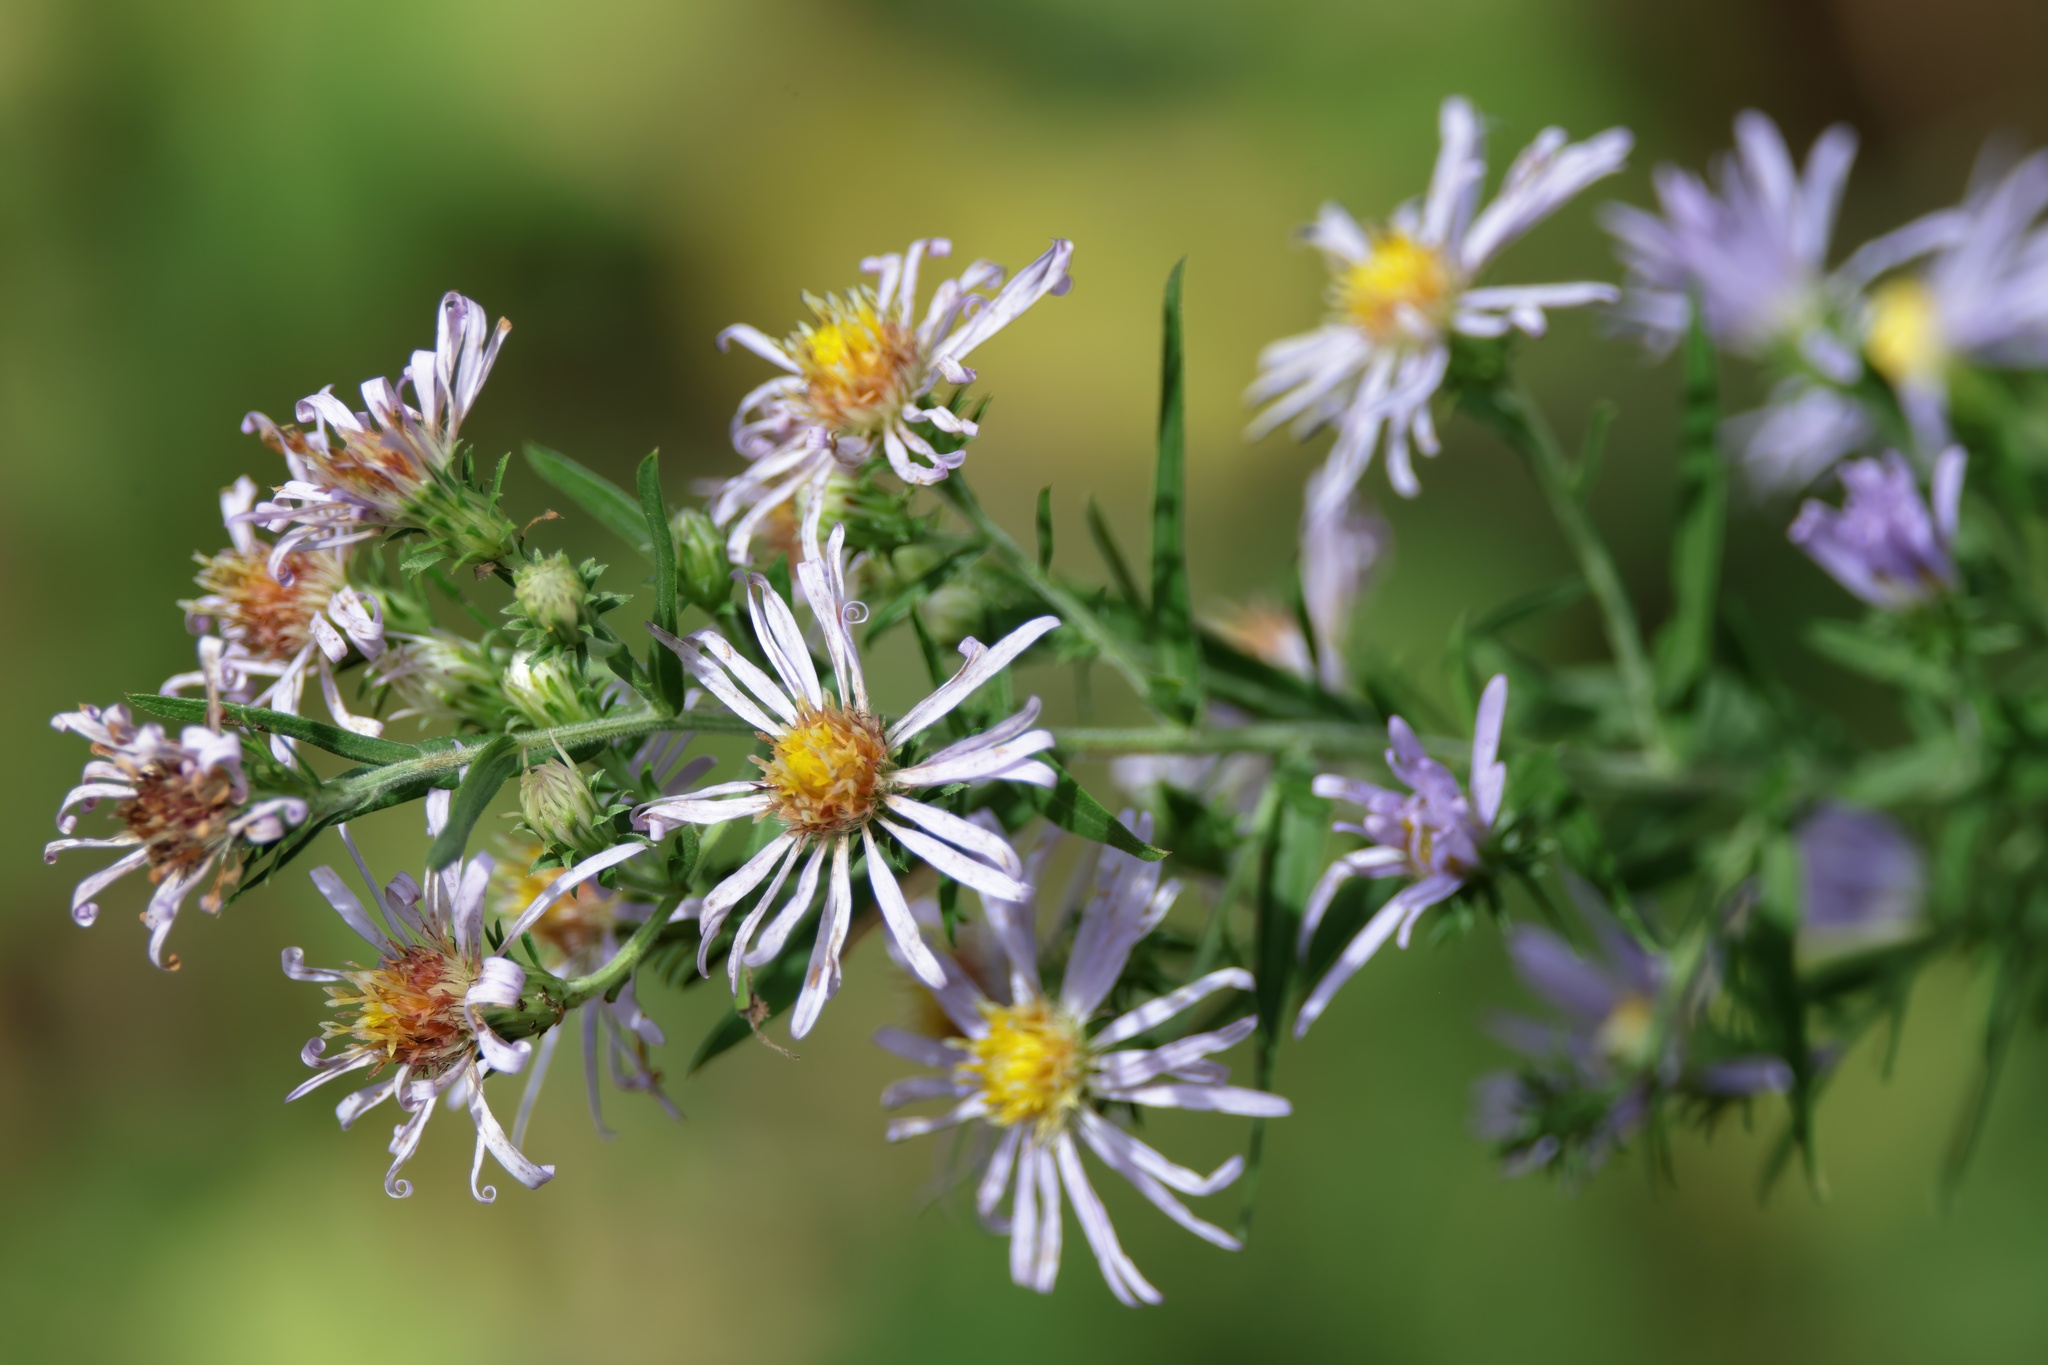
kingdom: Plantae
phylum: Tracheophyta
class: Magnoliopsida
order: Asterales
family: Asteraceae
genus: Symphyotrichum
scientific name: Symphyotrichum praealtum
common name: Willow aster
